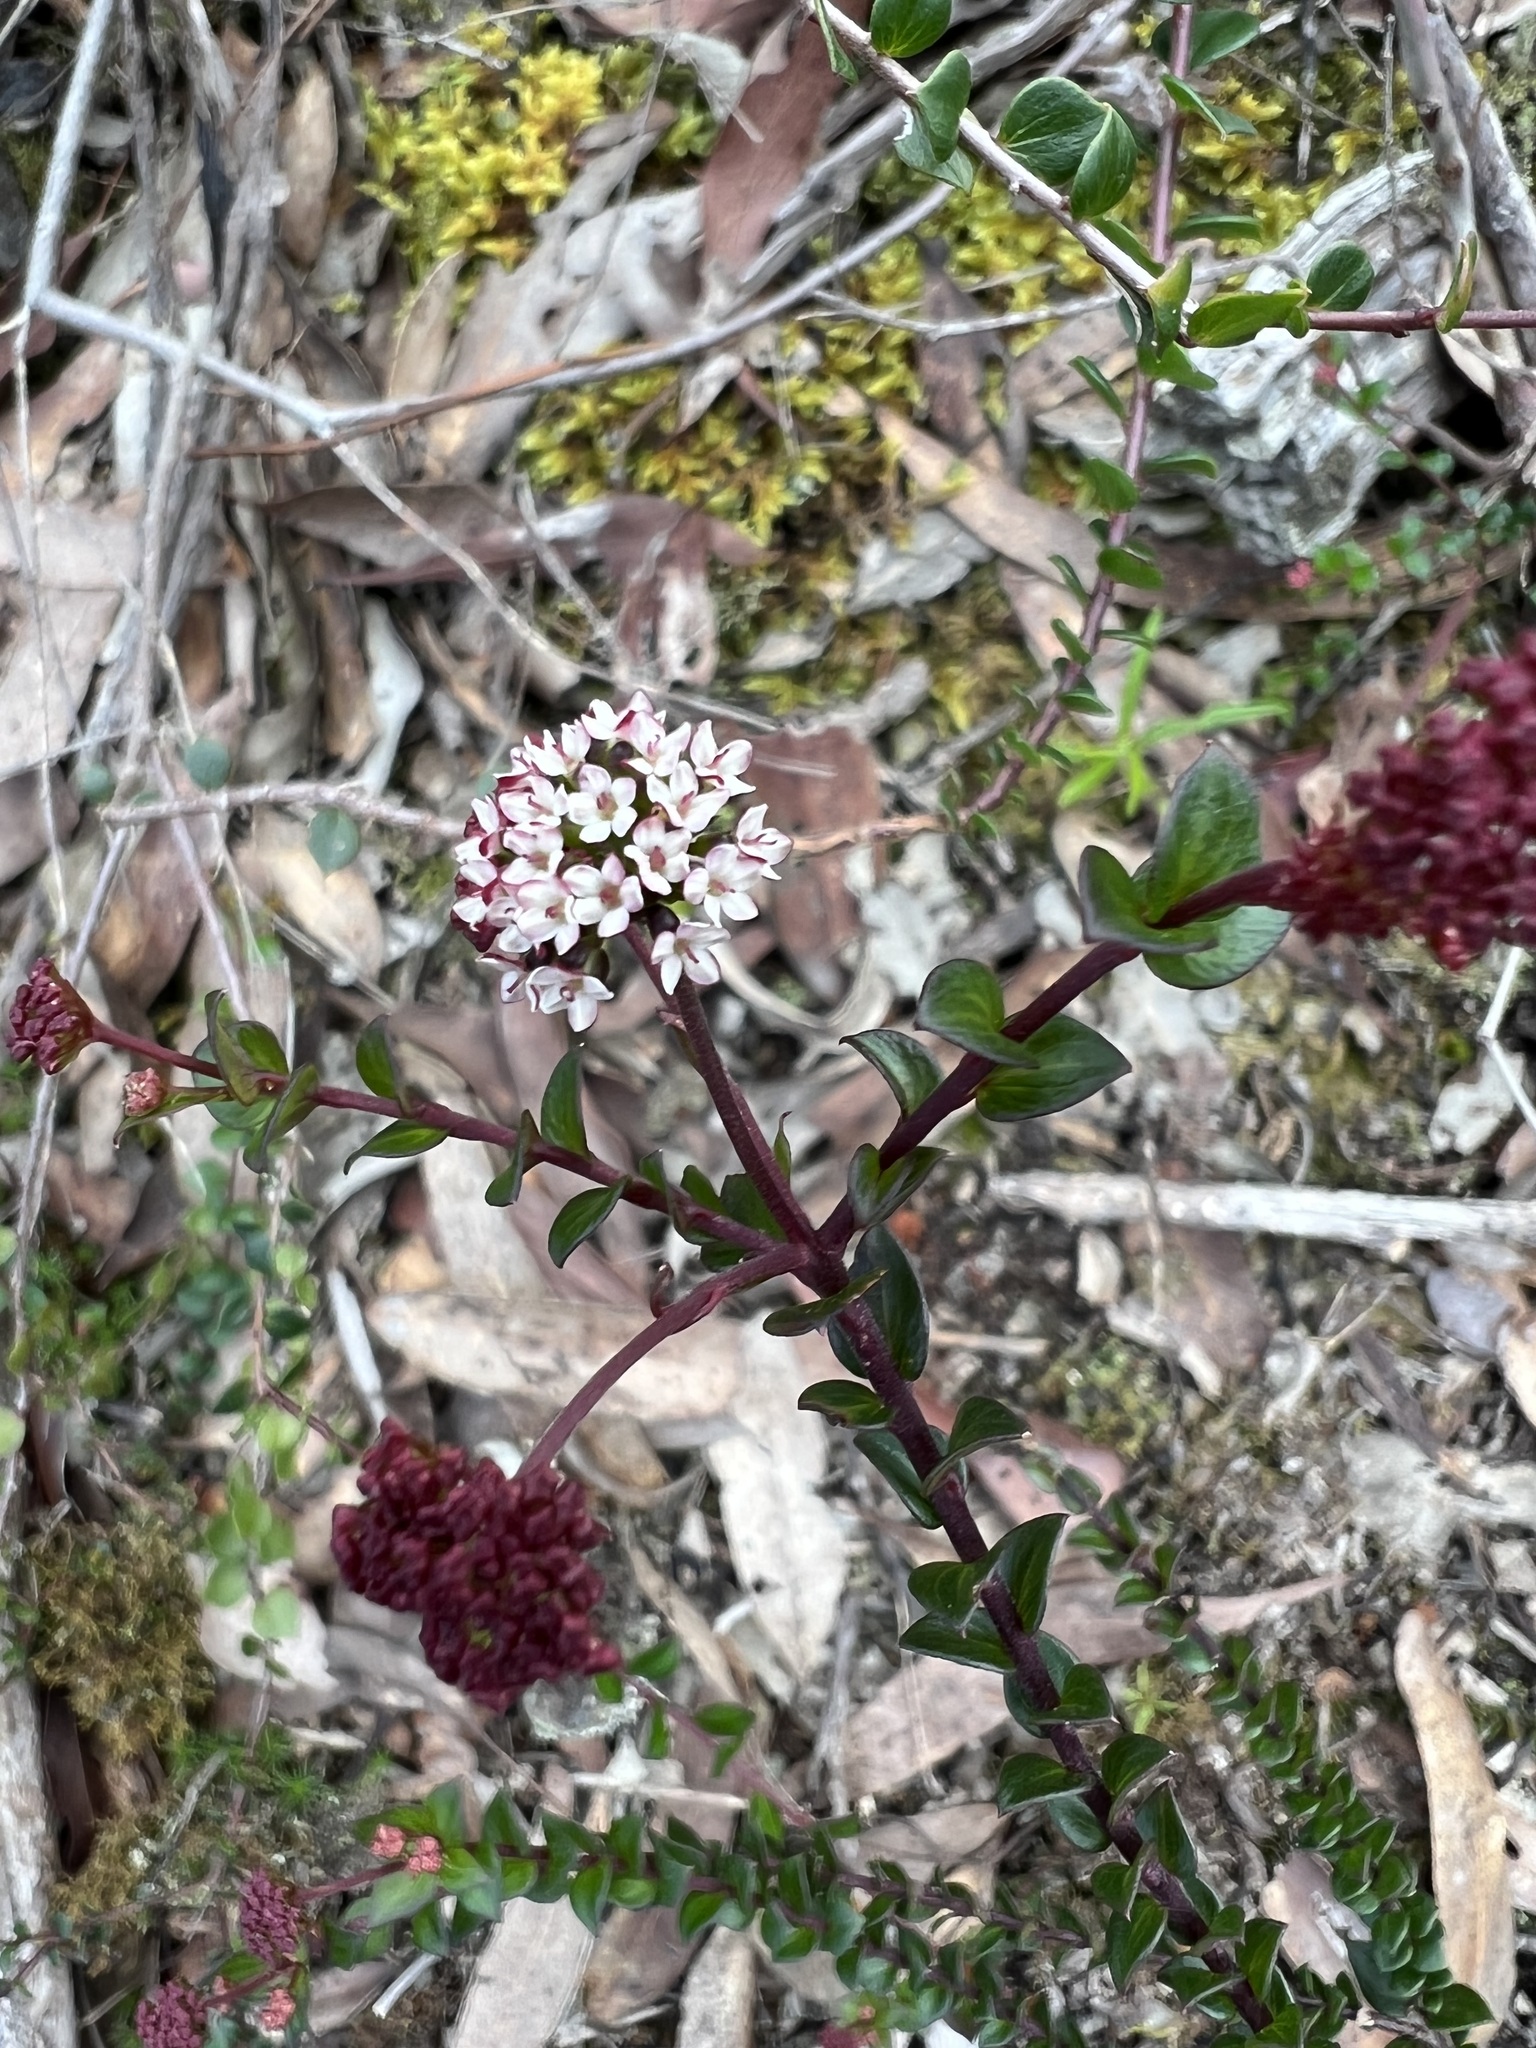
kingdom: Plantae
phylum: Tracheophyta
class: Magnoliopsida
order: Apiales
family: Apiaceae
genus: Platysace
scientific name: Platysace lanceolata
